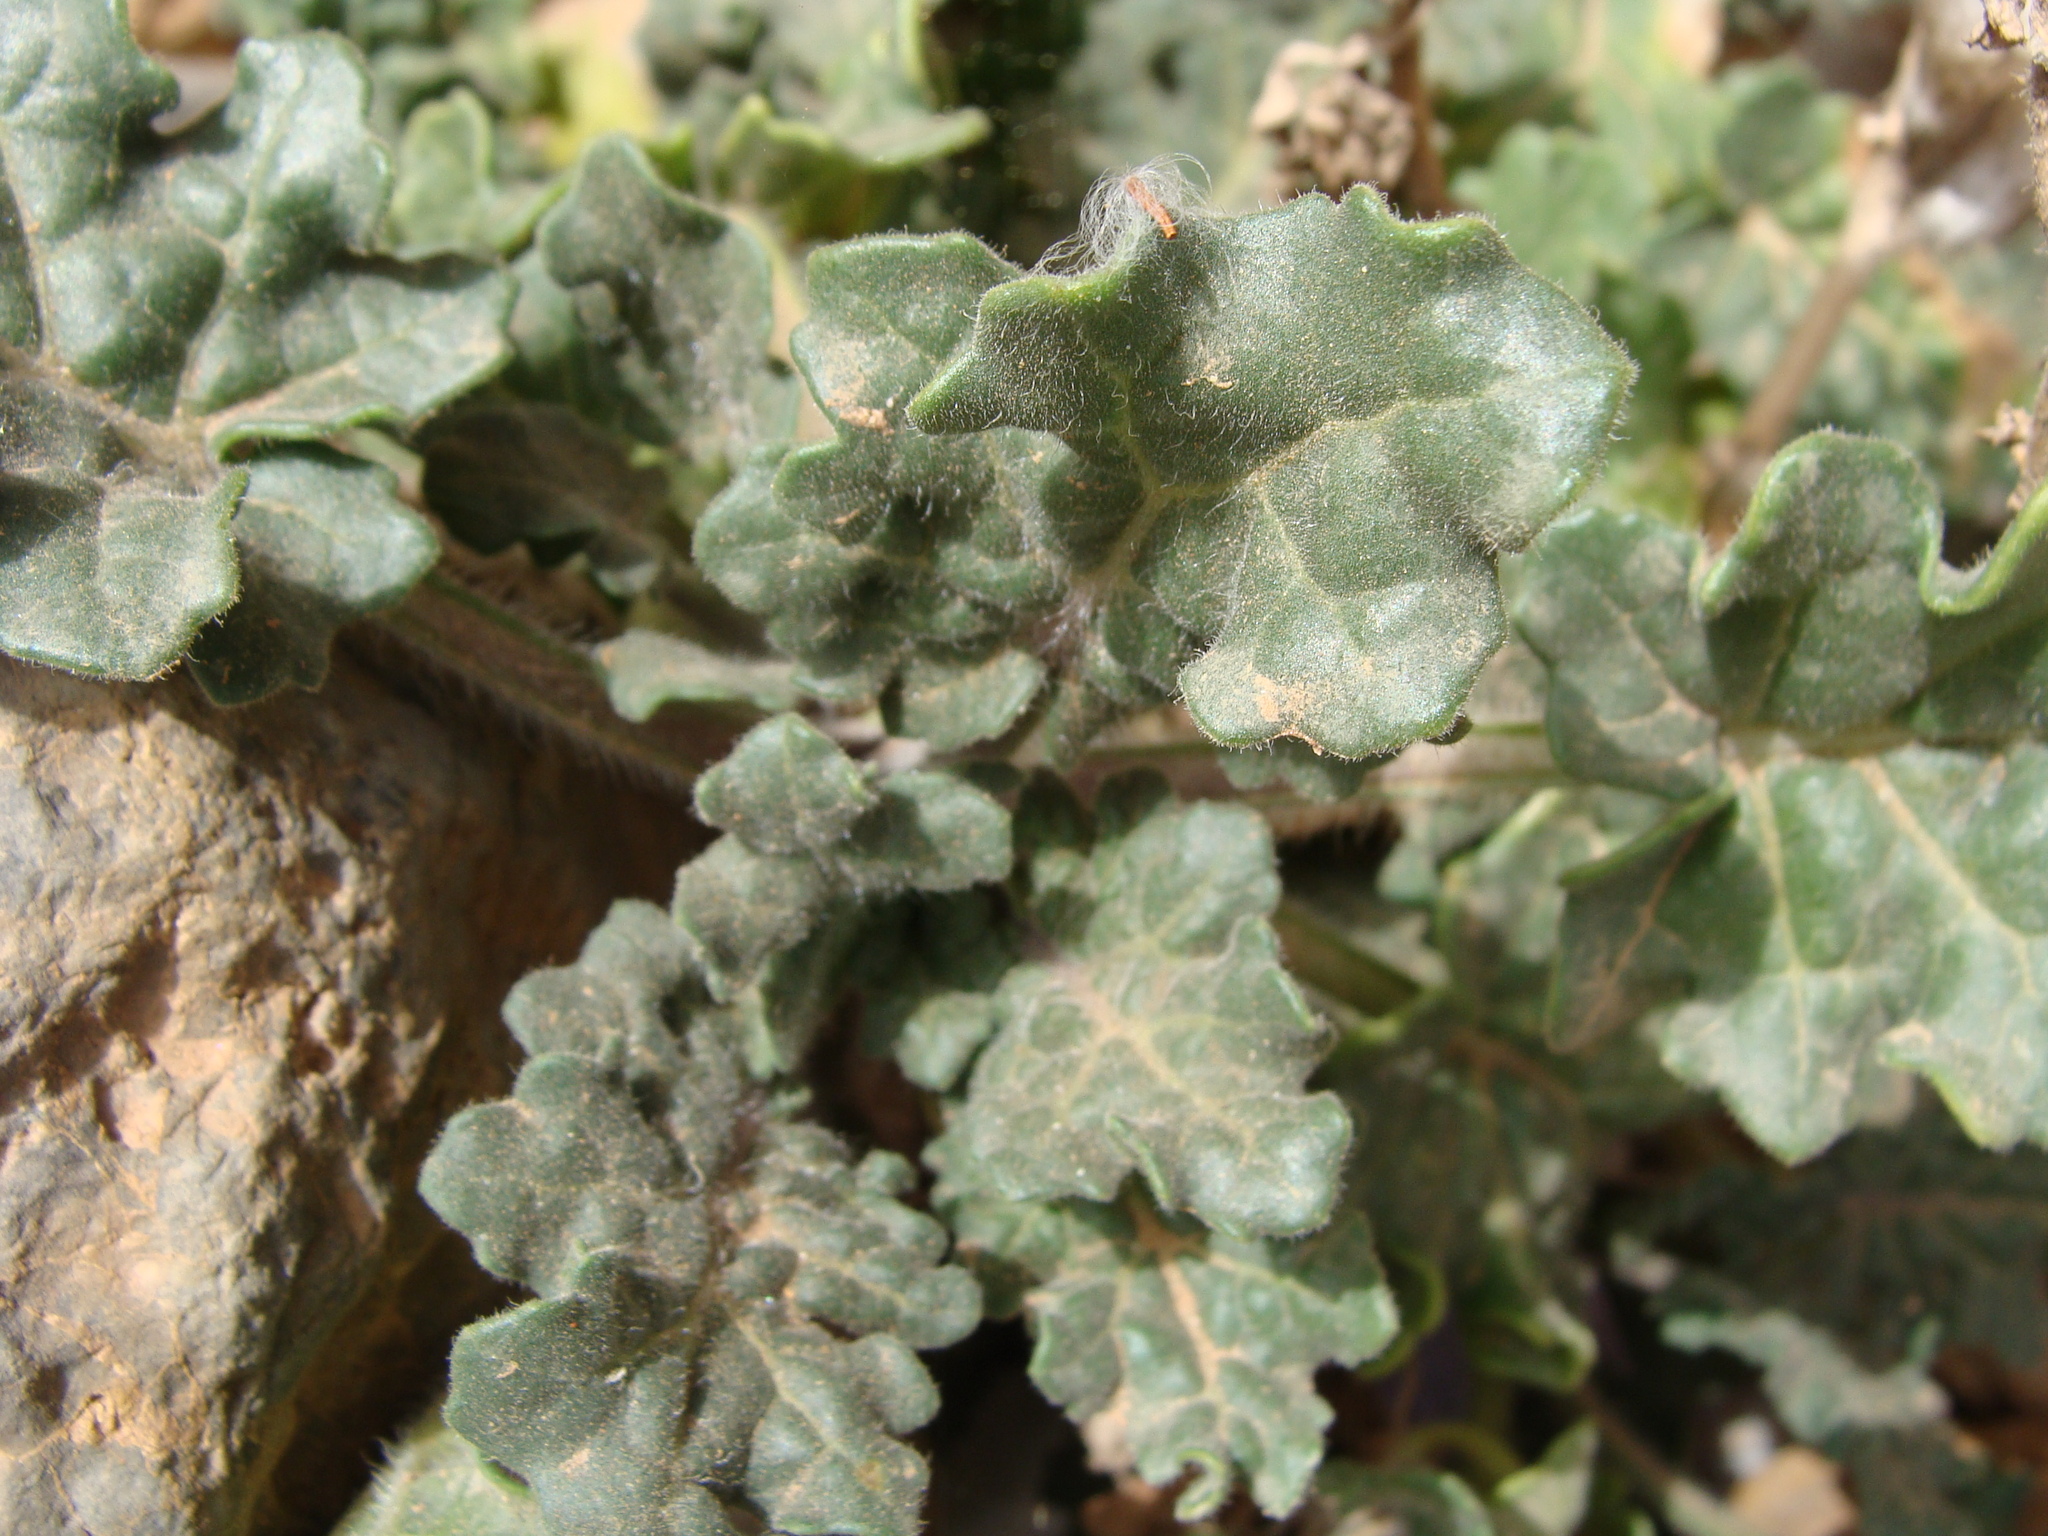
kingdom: Plantae
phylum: Tracheophyta
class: Magnoliopsida
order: Solanales
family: Solanaceae
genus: Hyoscyamus
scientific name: Hyoscyamus albus
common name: White henbane
